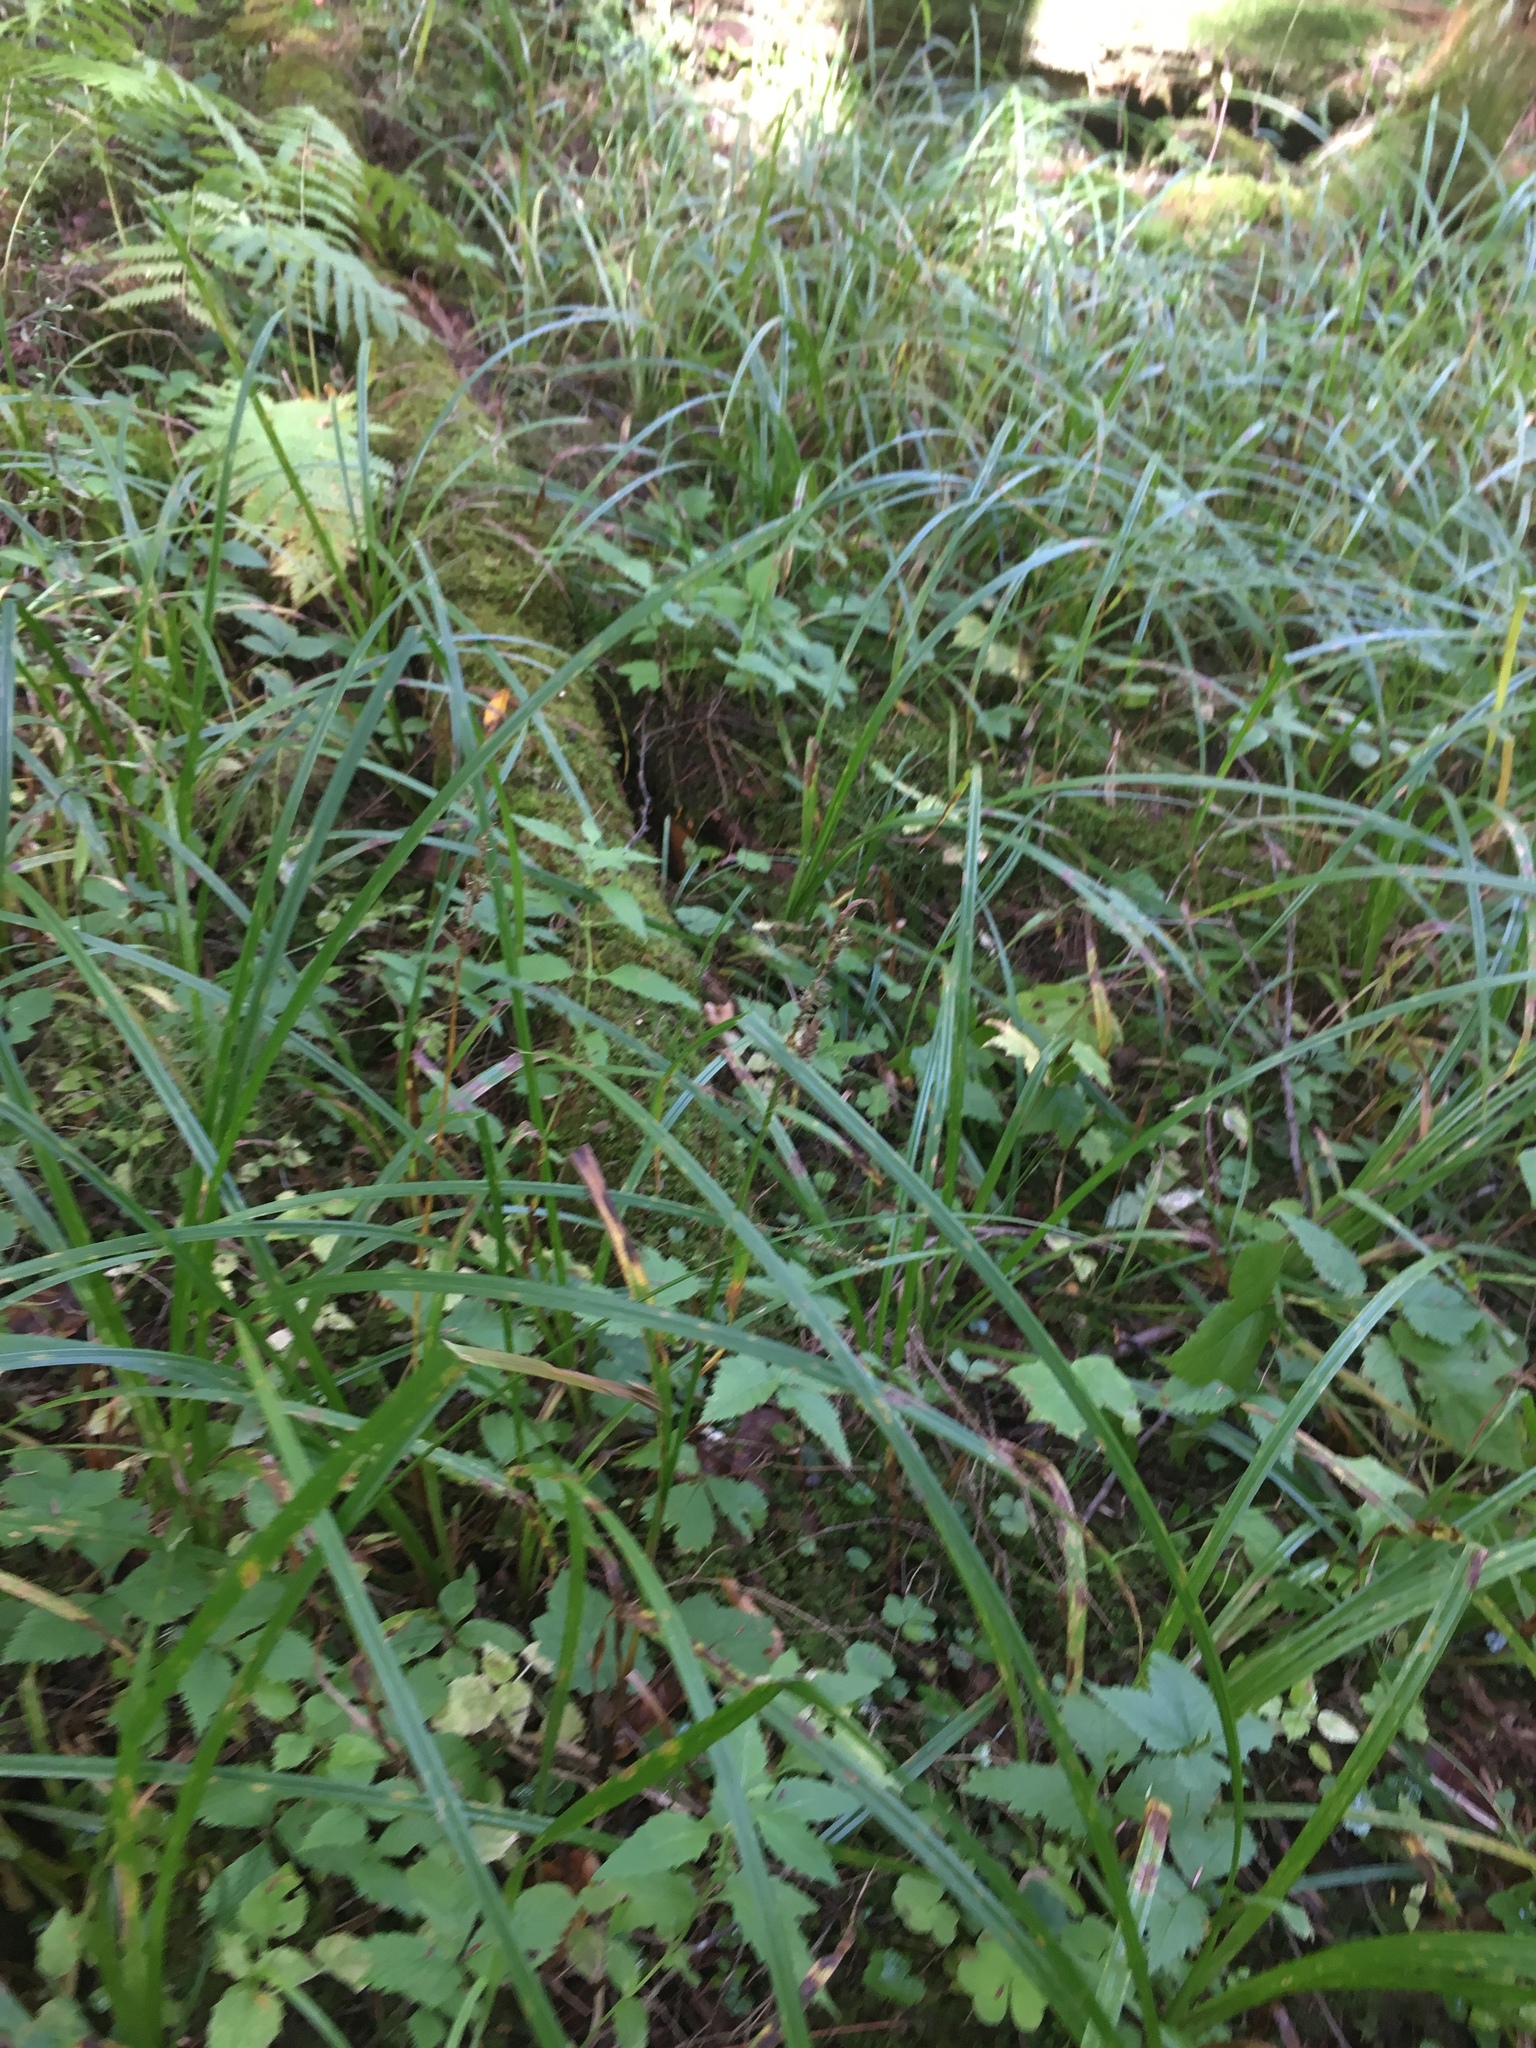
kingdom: Plantae
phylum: Tracheophyta
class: Liliopsida
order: Poales
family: Cyperaceae
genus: Carex
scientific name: Carex scabrata
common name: Eastern rough sedge
